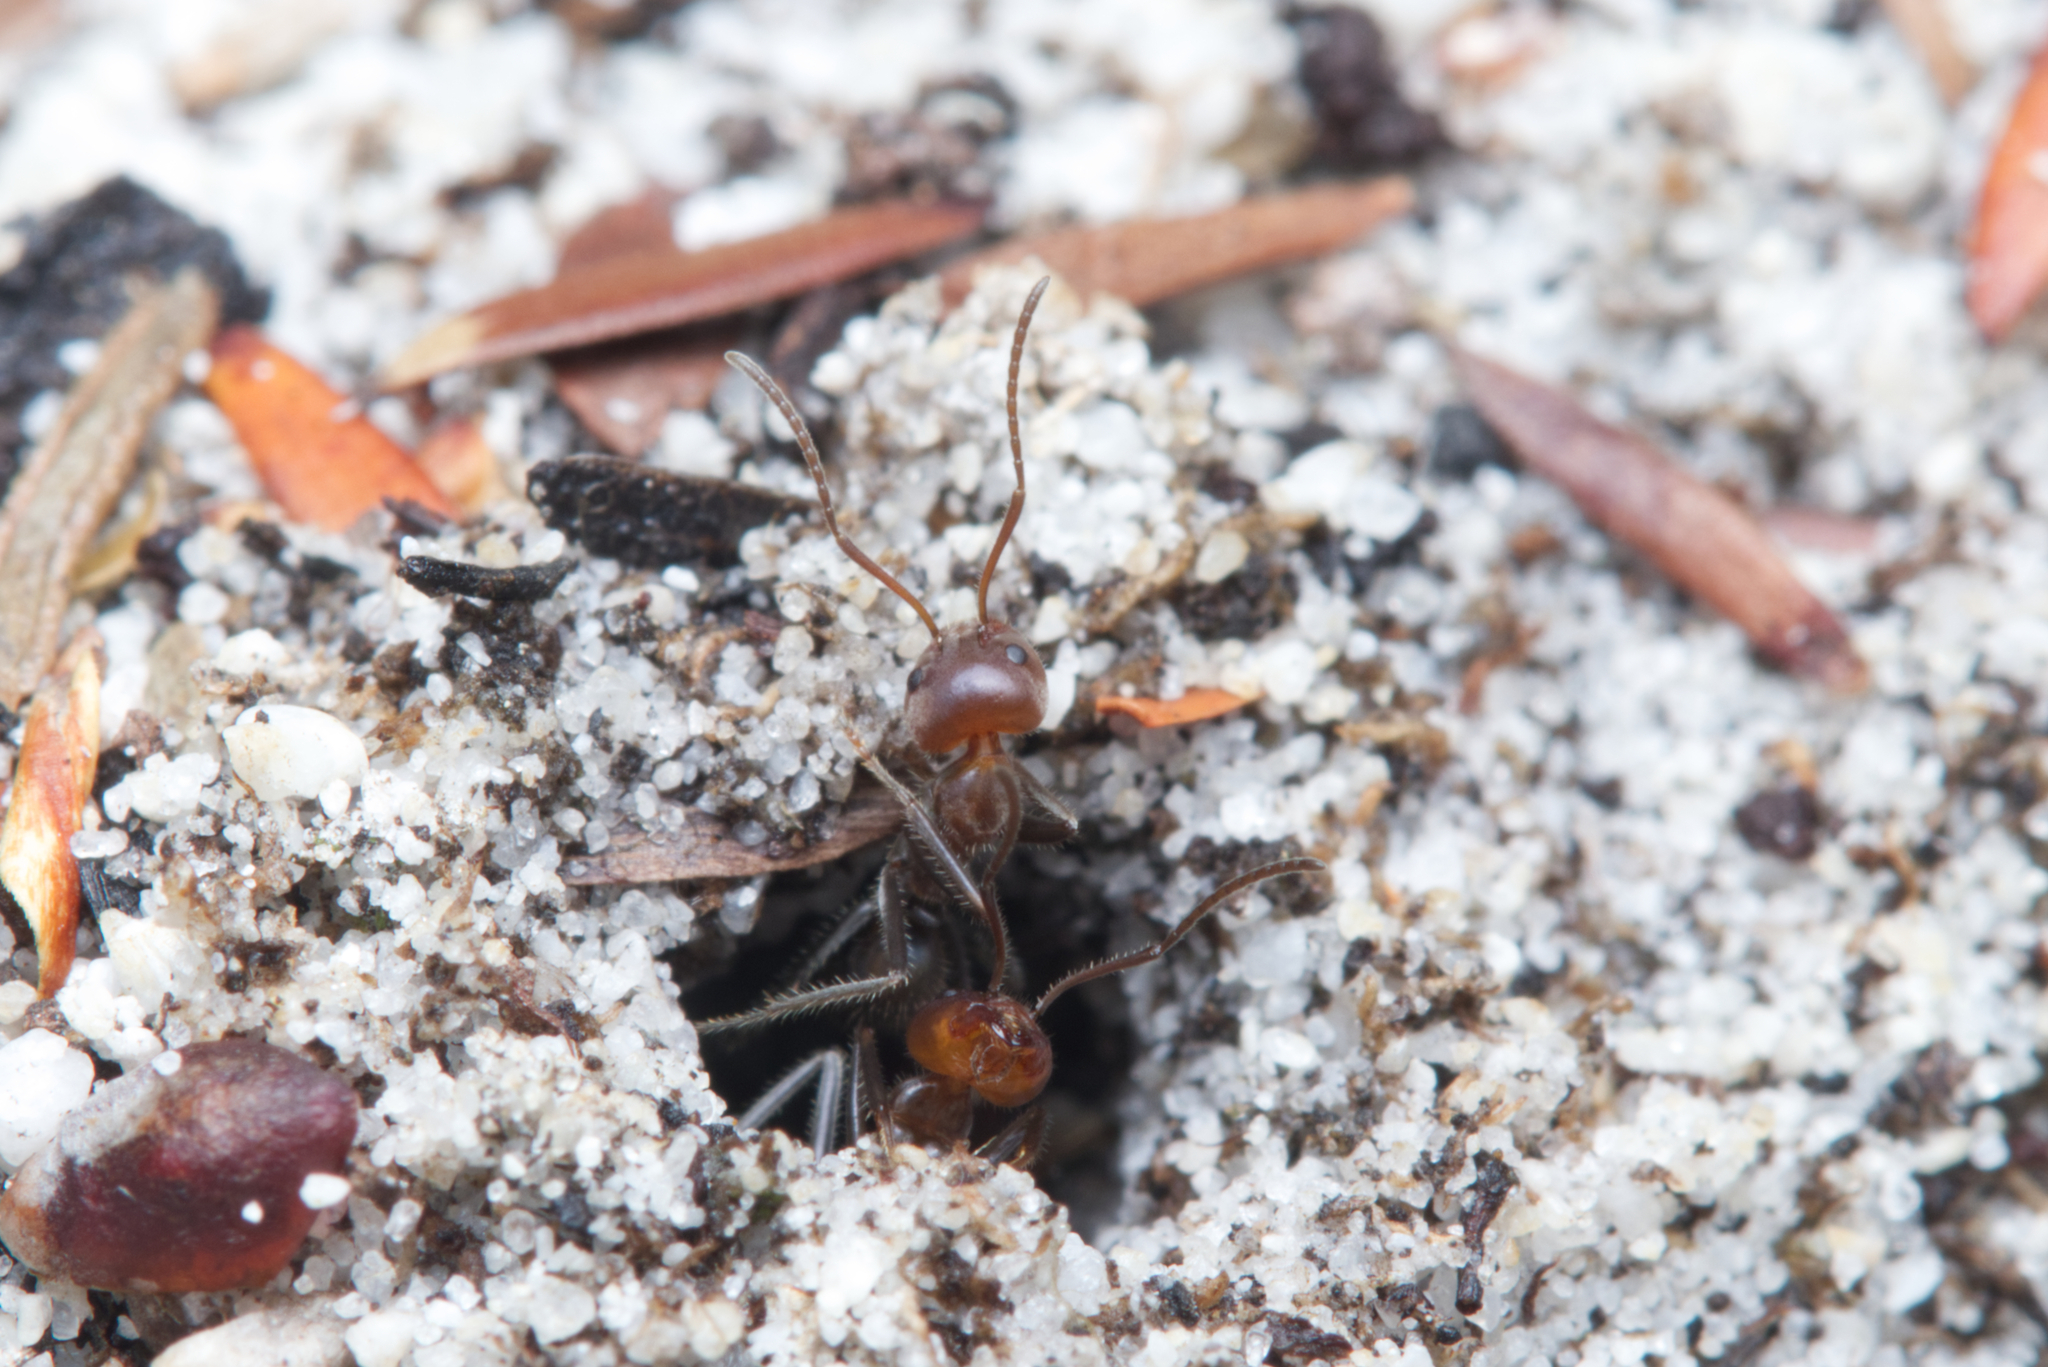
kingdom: Animalia
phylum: Arthropoda
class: Insecta
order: Hymenoptera
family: Formicidae
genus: Iridomyrmex
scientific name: Iridomyrmex discors
